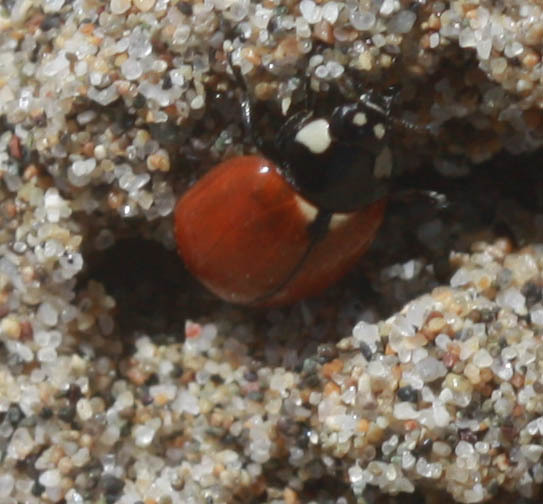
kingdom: Animalia
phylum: Arthropoda
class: Insecta
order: Coleoptera
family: Coccinellidae
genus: Coccinella
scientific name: Coccinella californica
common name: Lady beetle
